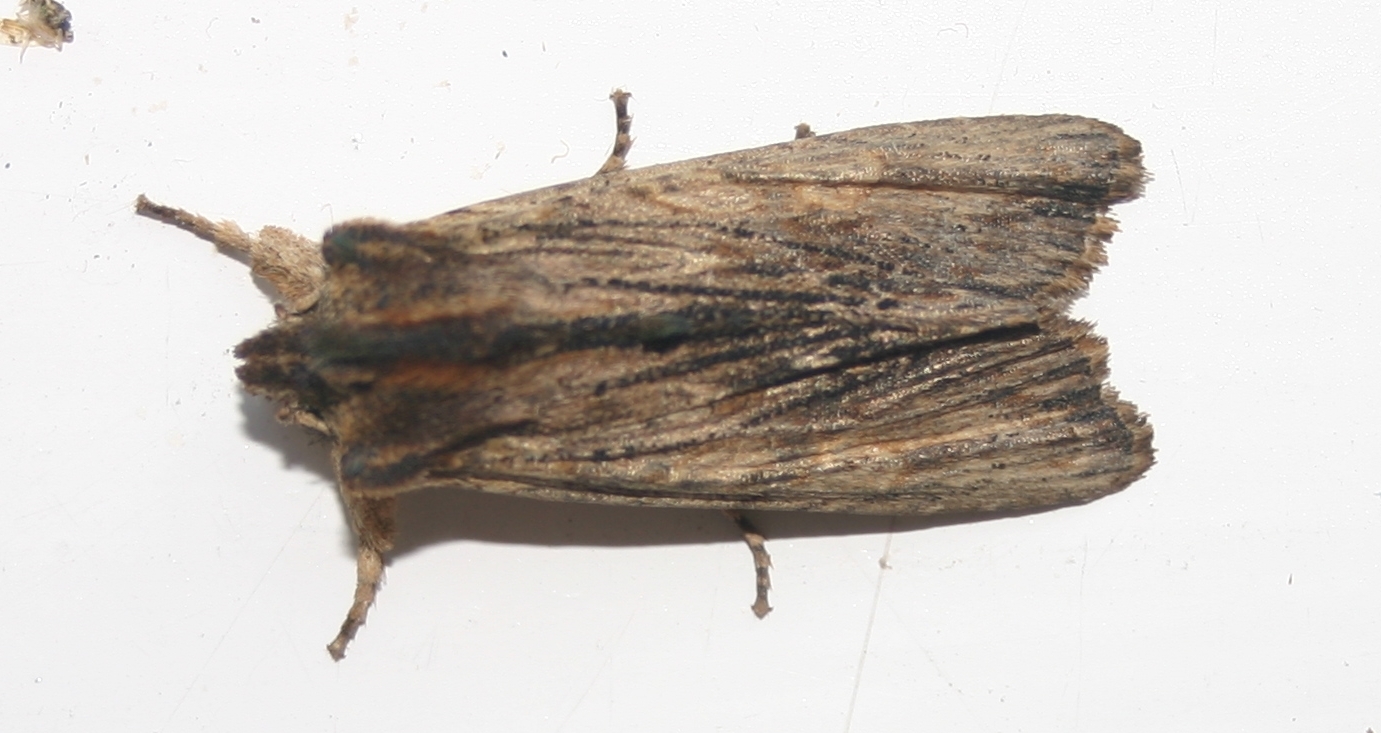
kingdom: Animalia
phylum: Arthropoda
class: Insecta
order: Lepidoptera
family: Noctuidae
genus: Lithophane
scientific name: Lithophane semibrunnea
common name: Tawny pinion
